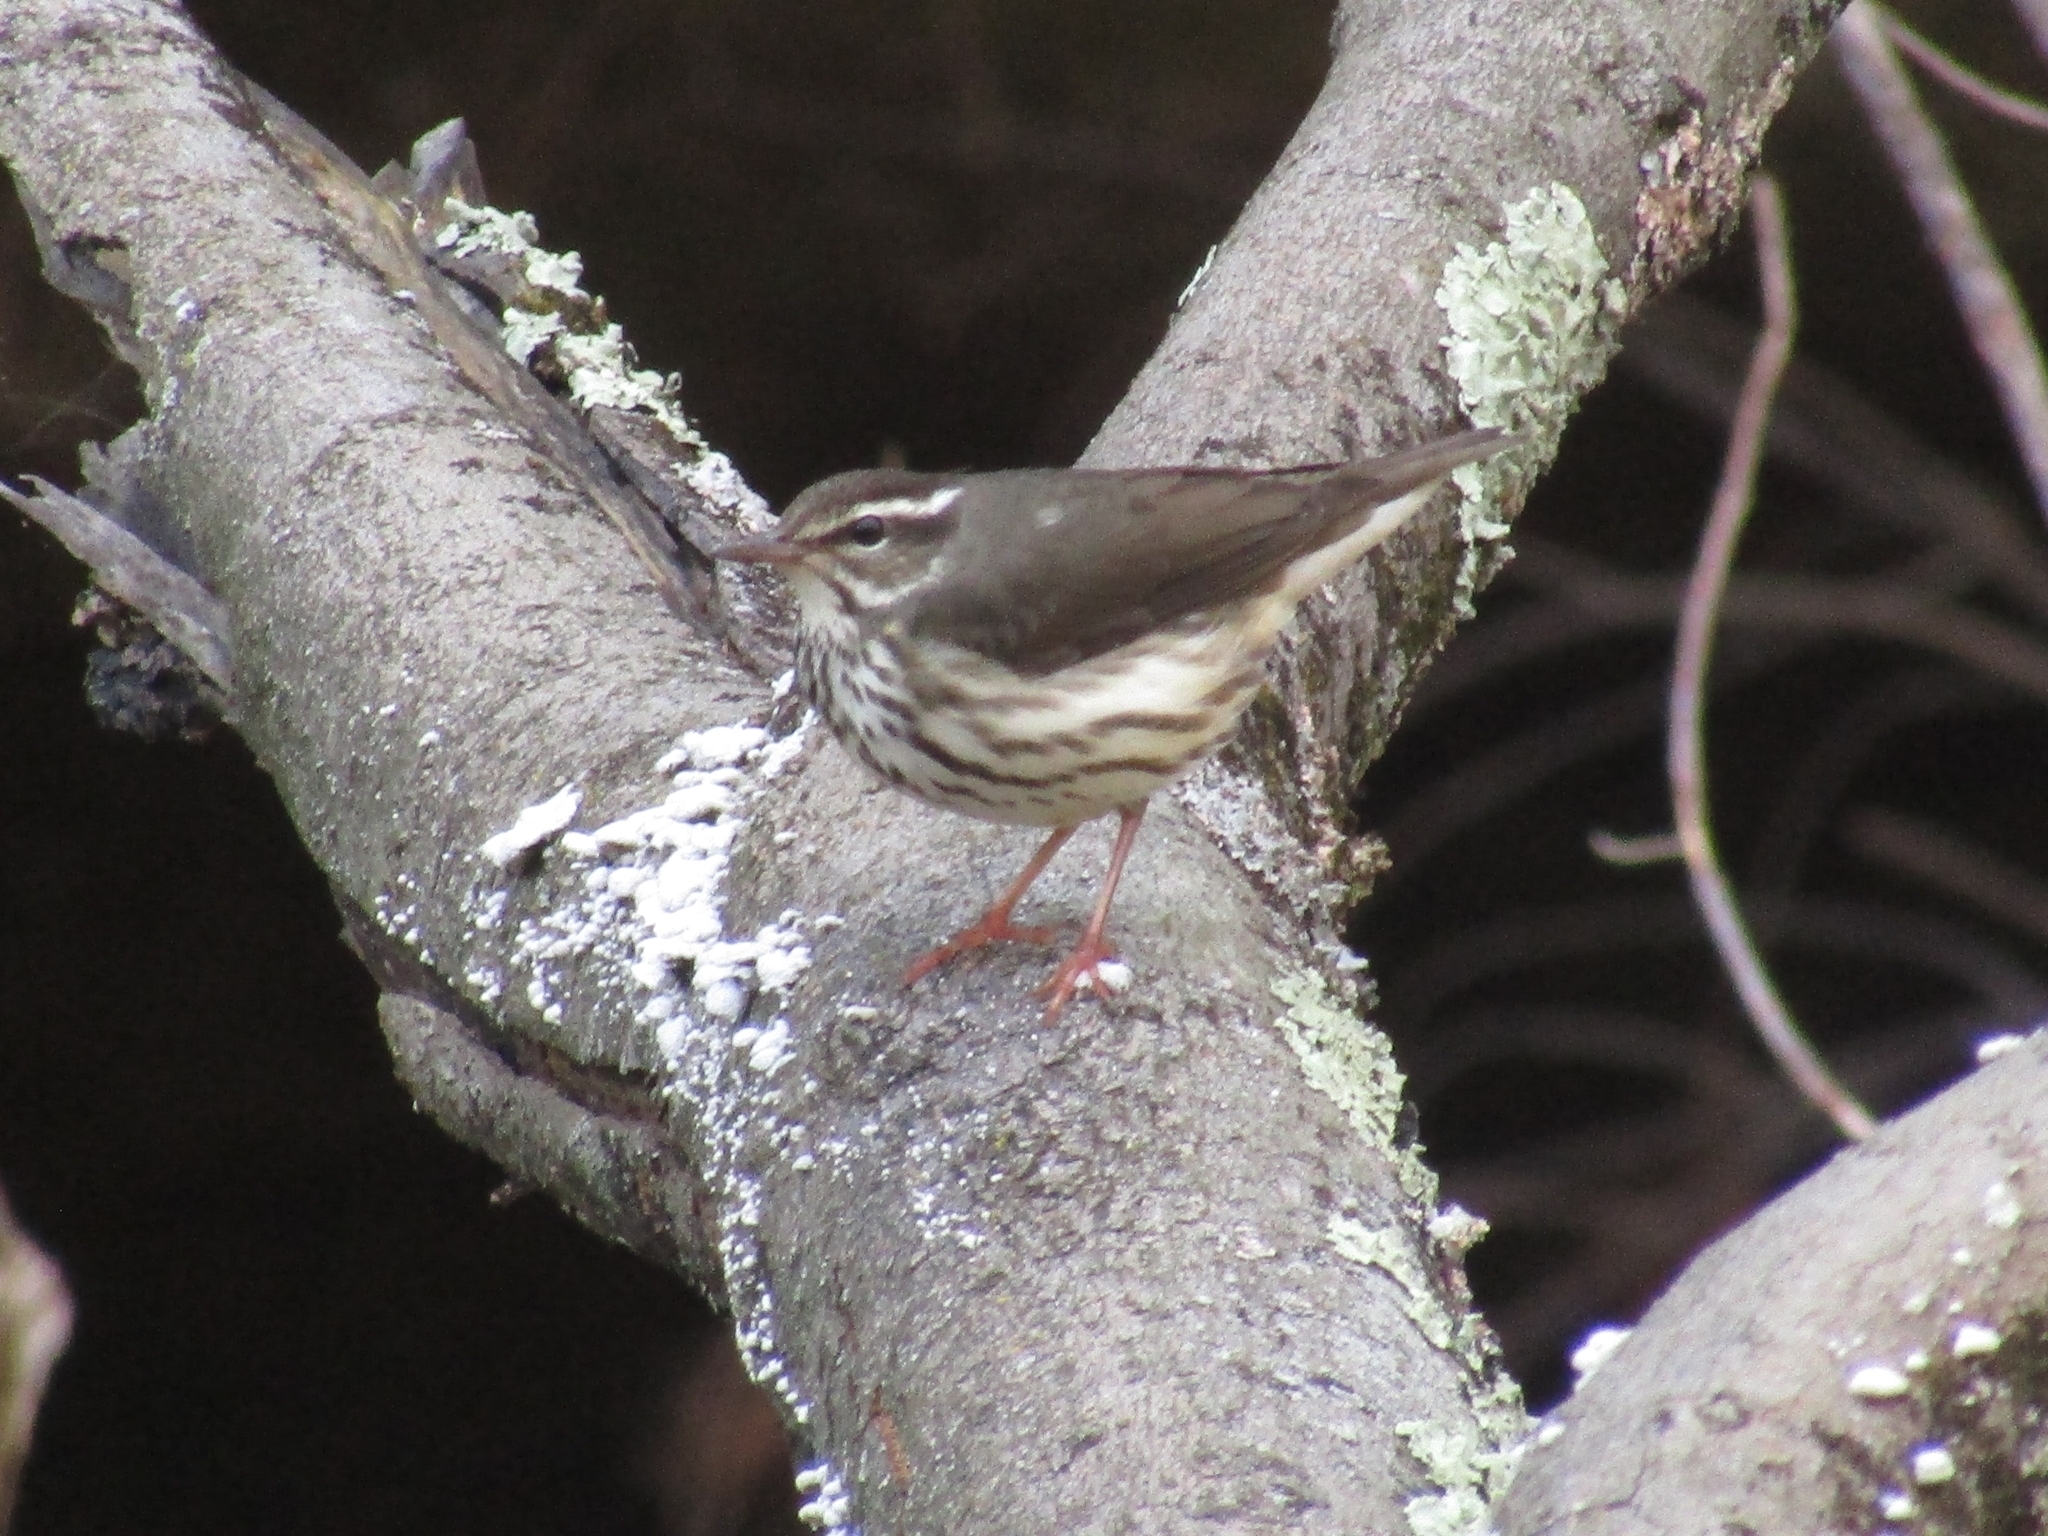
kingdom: Animalia
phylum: Chordata
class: Aves
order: Passeriformes
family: Parulidae
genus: Parkesia
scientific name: Parkesia motacilla
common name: Louisiana waterthrush
